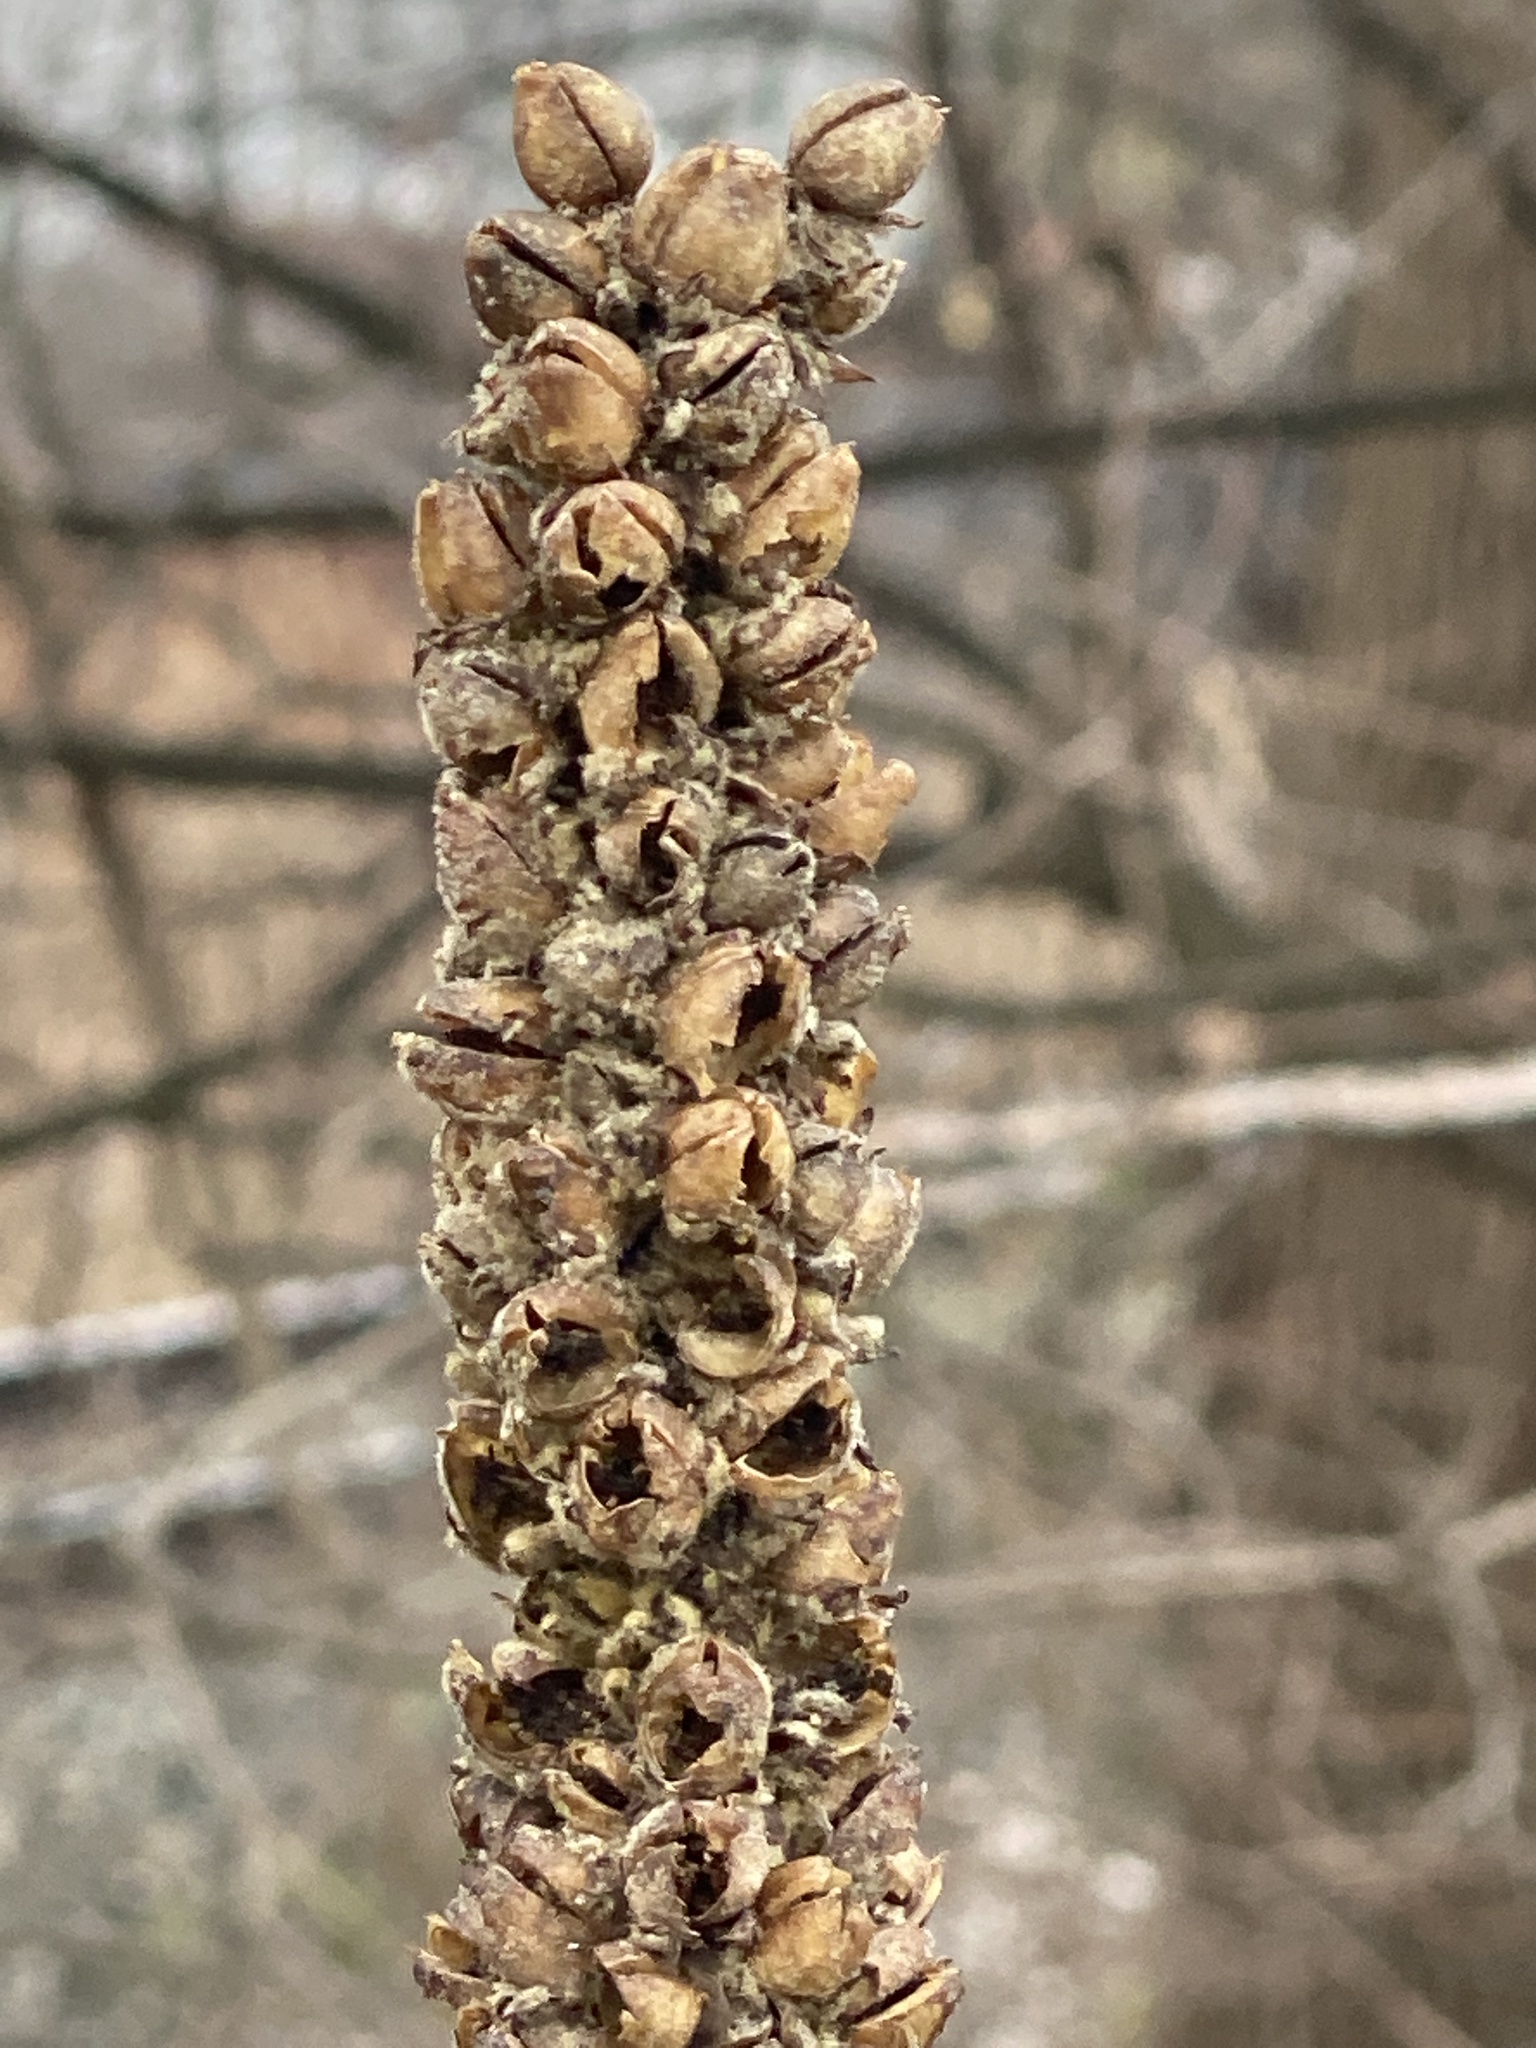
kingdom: Plantae
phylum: Tracheophyta
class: Magnoliopsida
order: Lamiales
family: Scrophulariaceae
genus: Verbascum
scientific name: Verbascum thapsus
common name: Common mullein
